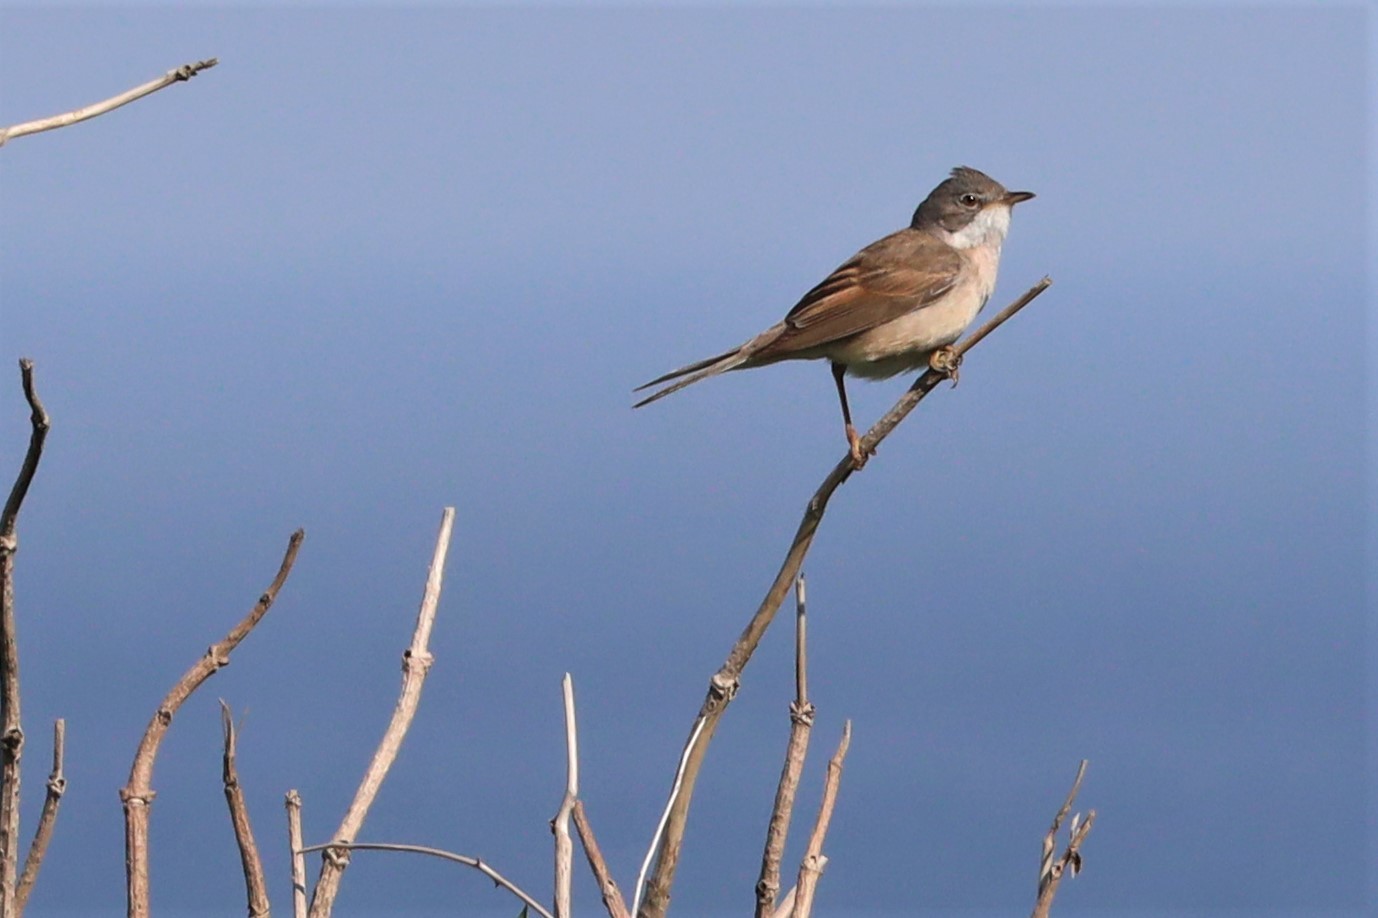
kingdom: Animalia
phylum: Chordata
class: Aves
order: Passeriformes
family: Sylviidae
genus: Sylvia
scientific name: Sylvia communis
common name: Common whitethroat
